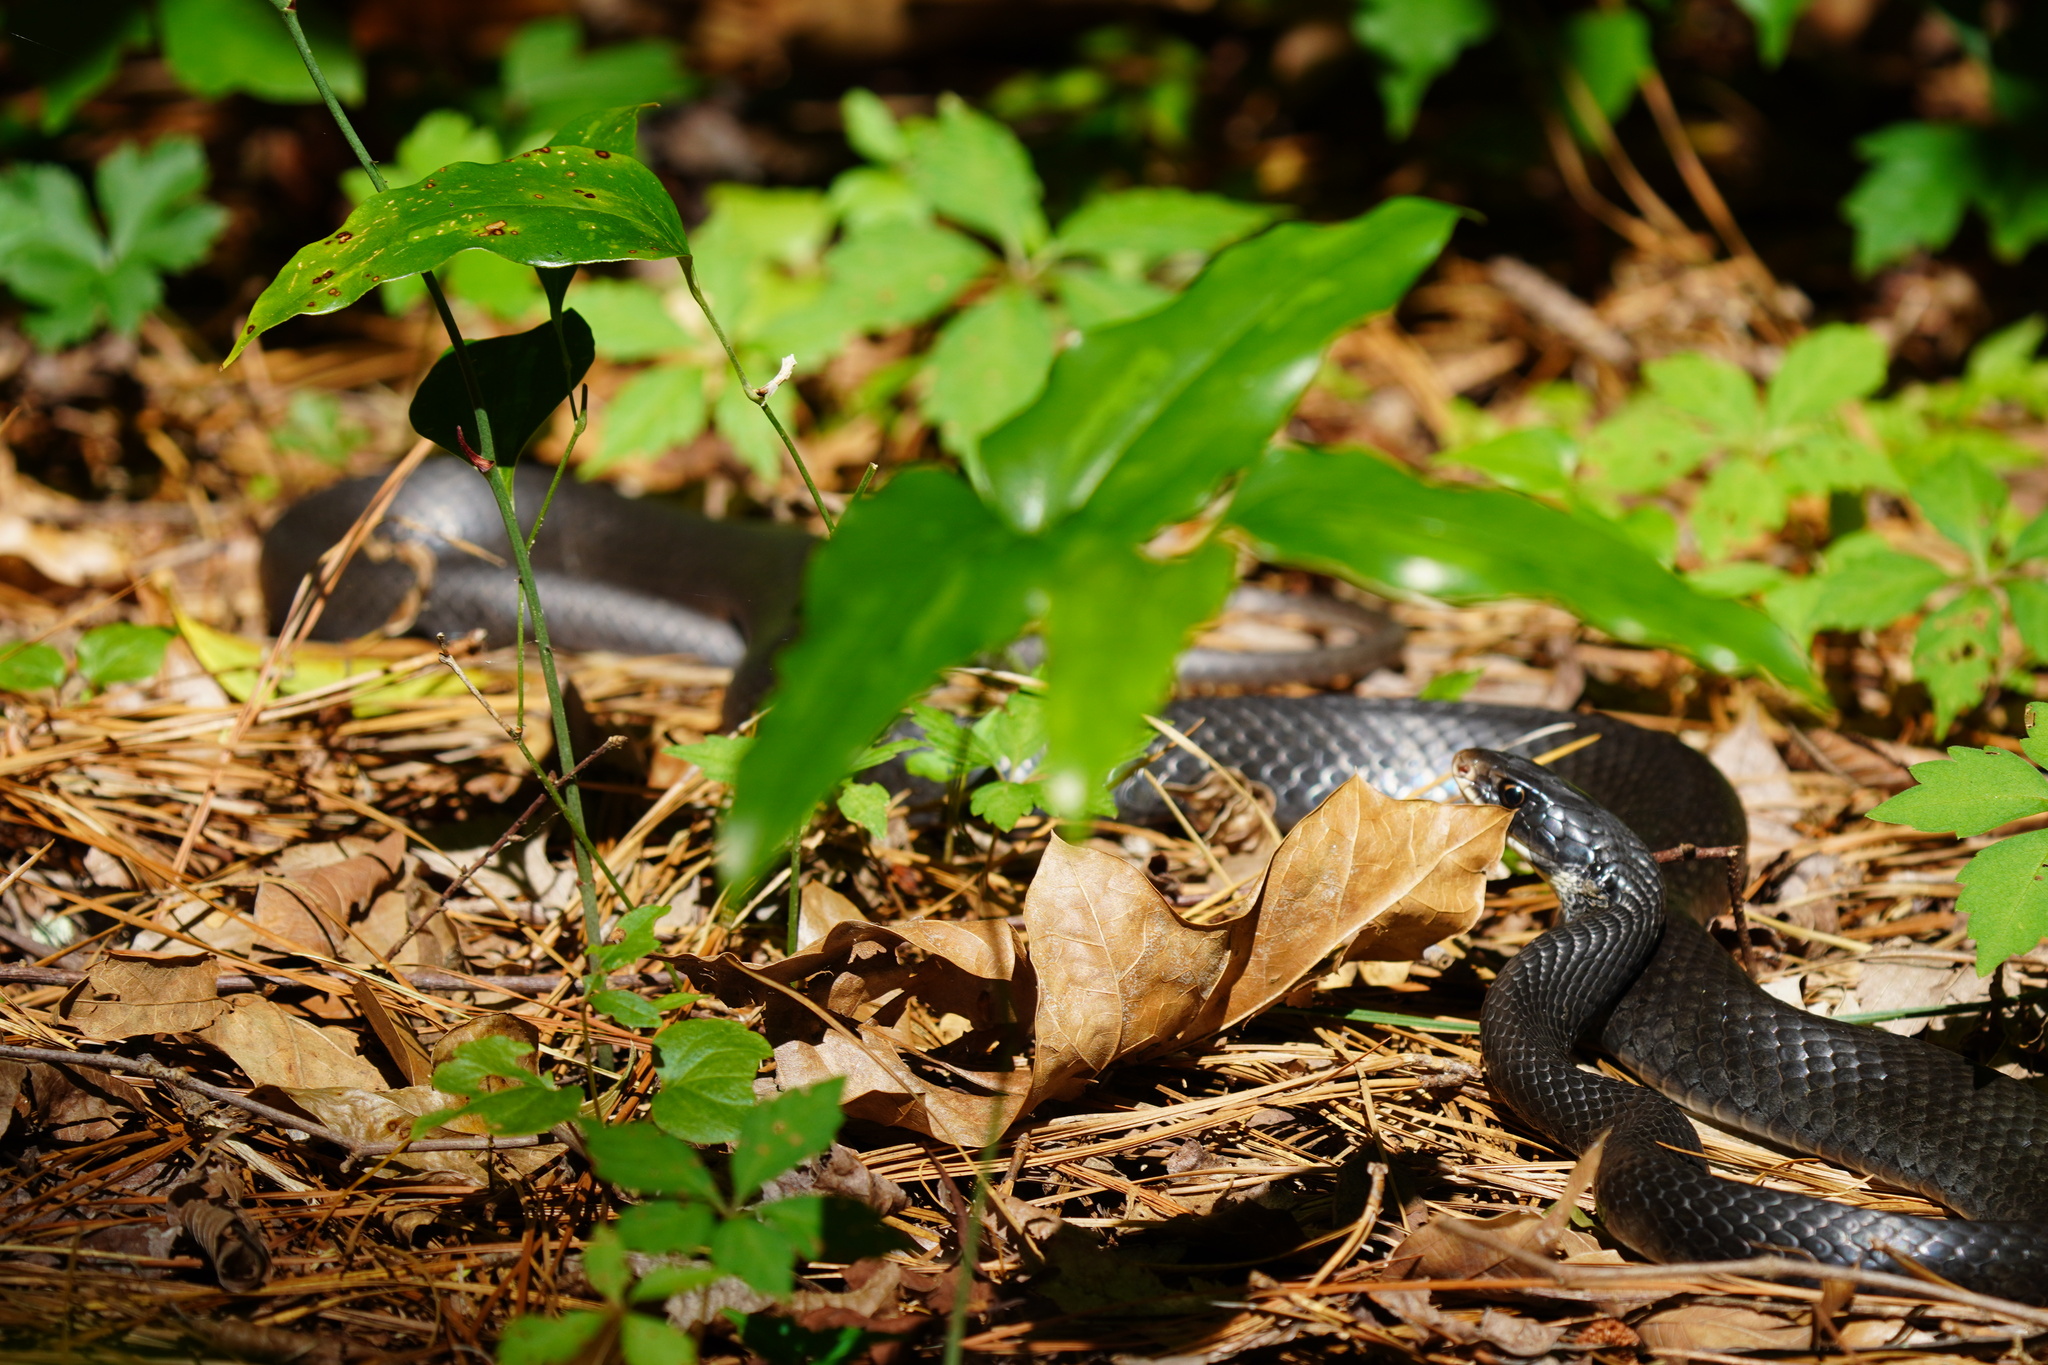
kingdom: Animalia
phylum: Chordata
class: Squamata
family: Colubridae
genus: Coluber
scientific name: Coluber constrictor
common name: Eastern racer
